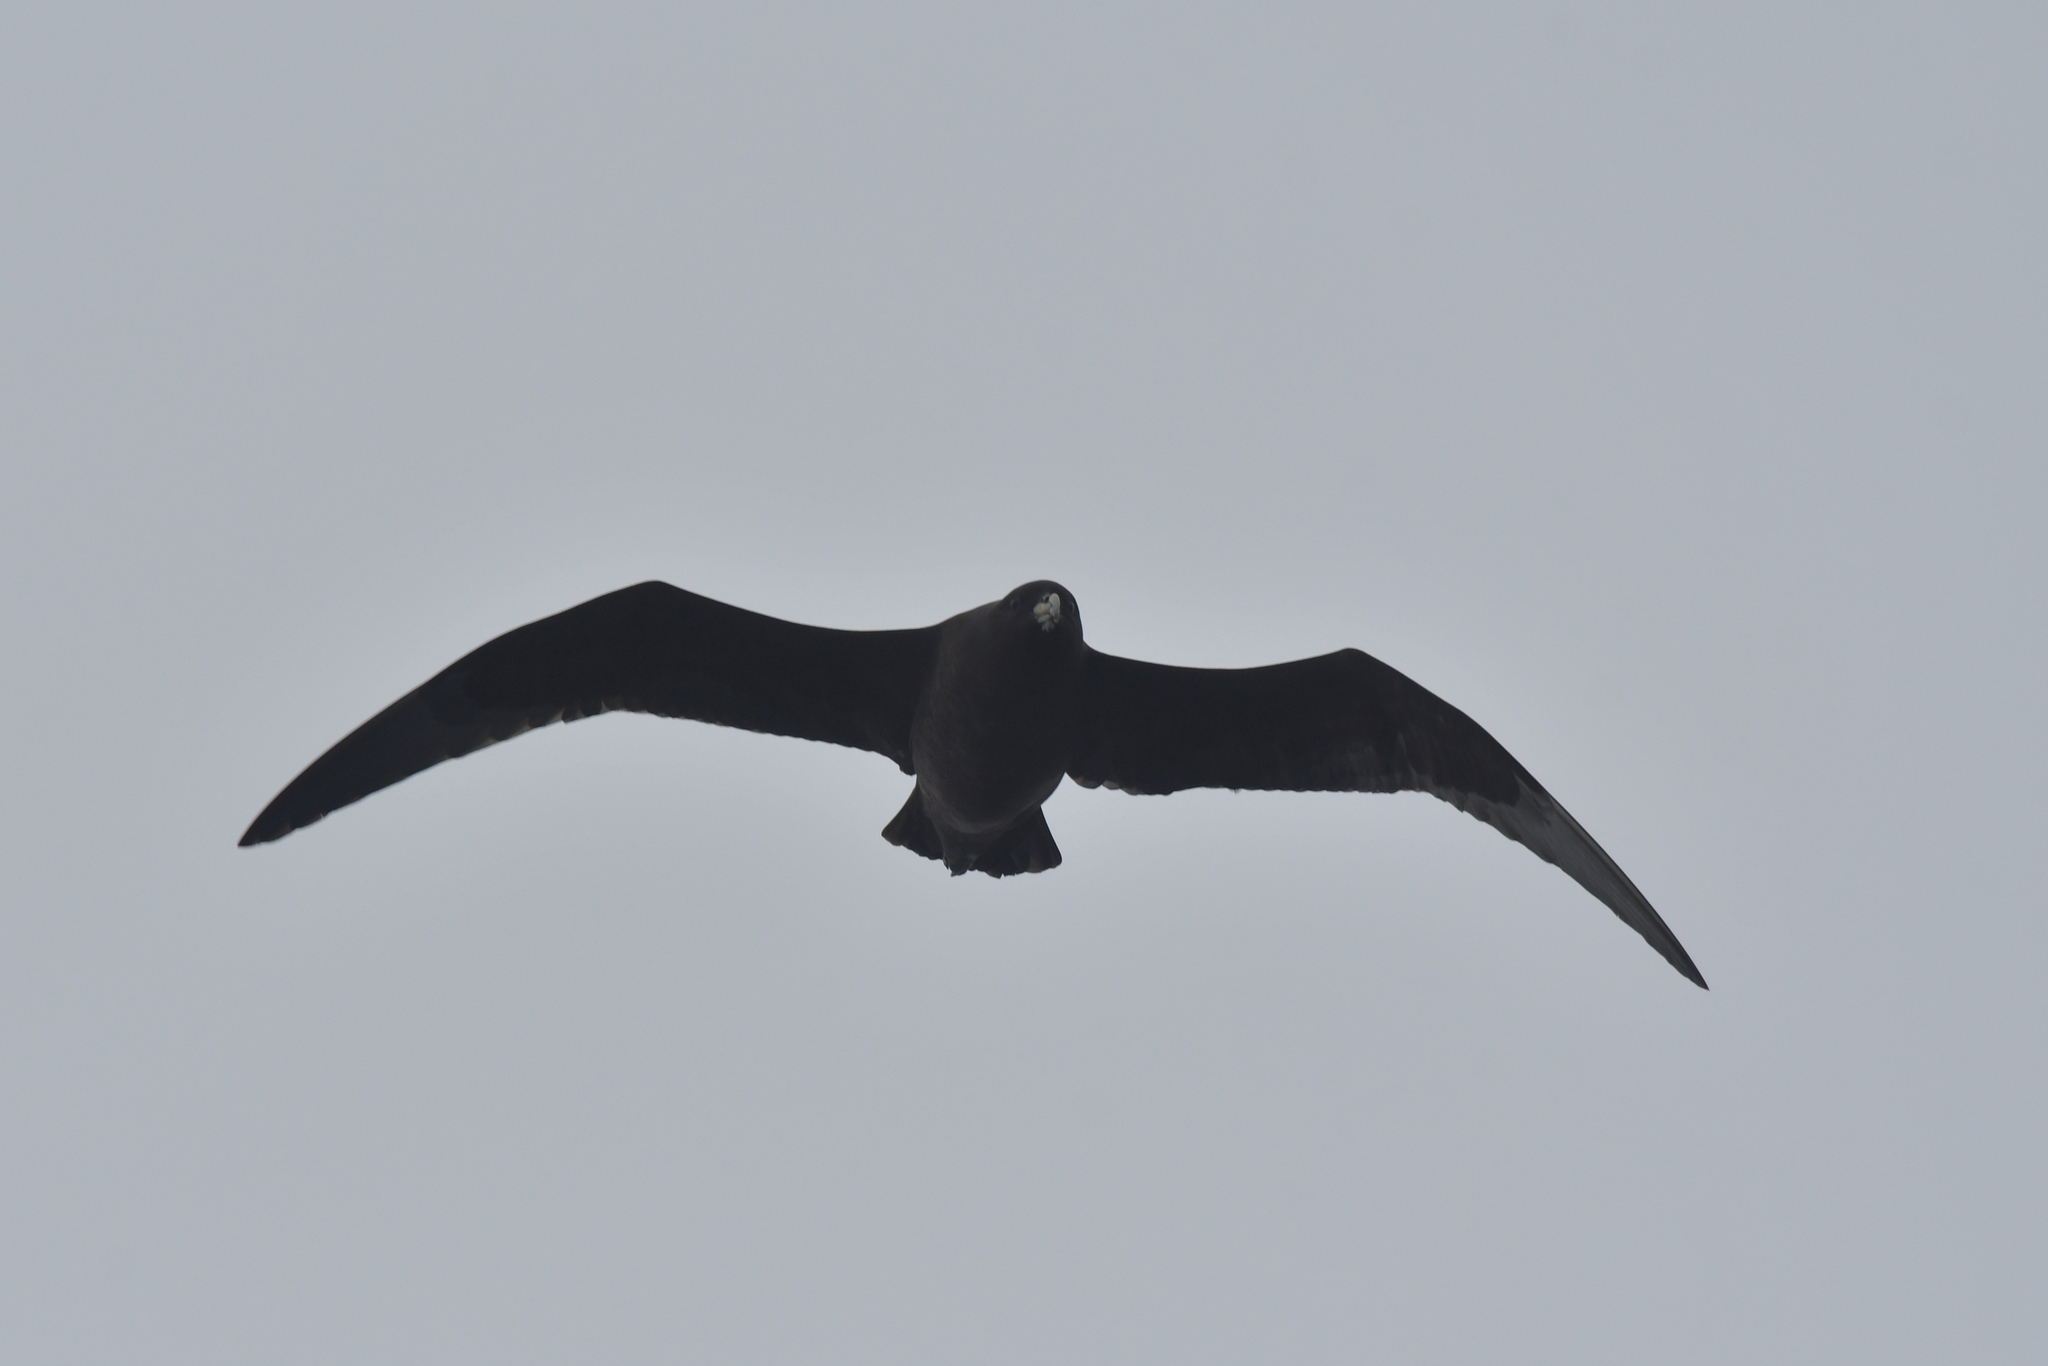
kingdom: Animalia
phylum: Chordata
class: Aves
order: Procellariiformes
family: Procellariidae
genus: Procellaria
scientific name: Procellaria aequinoctialis
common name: White-chinned petrel
